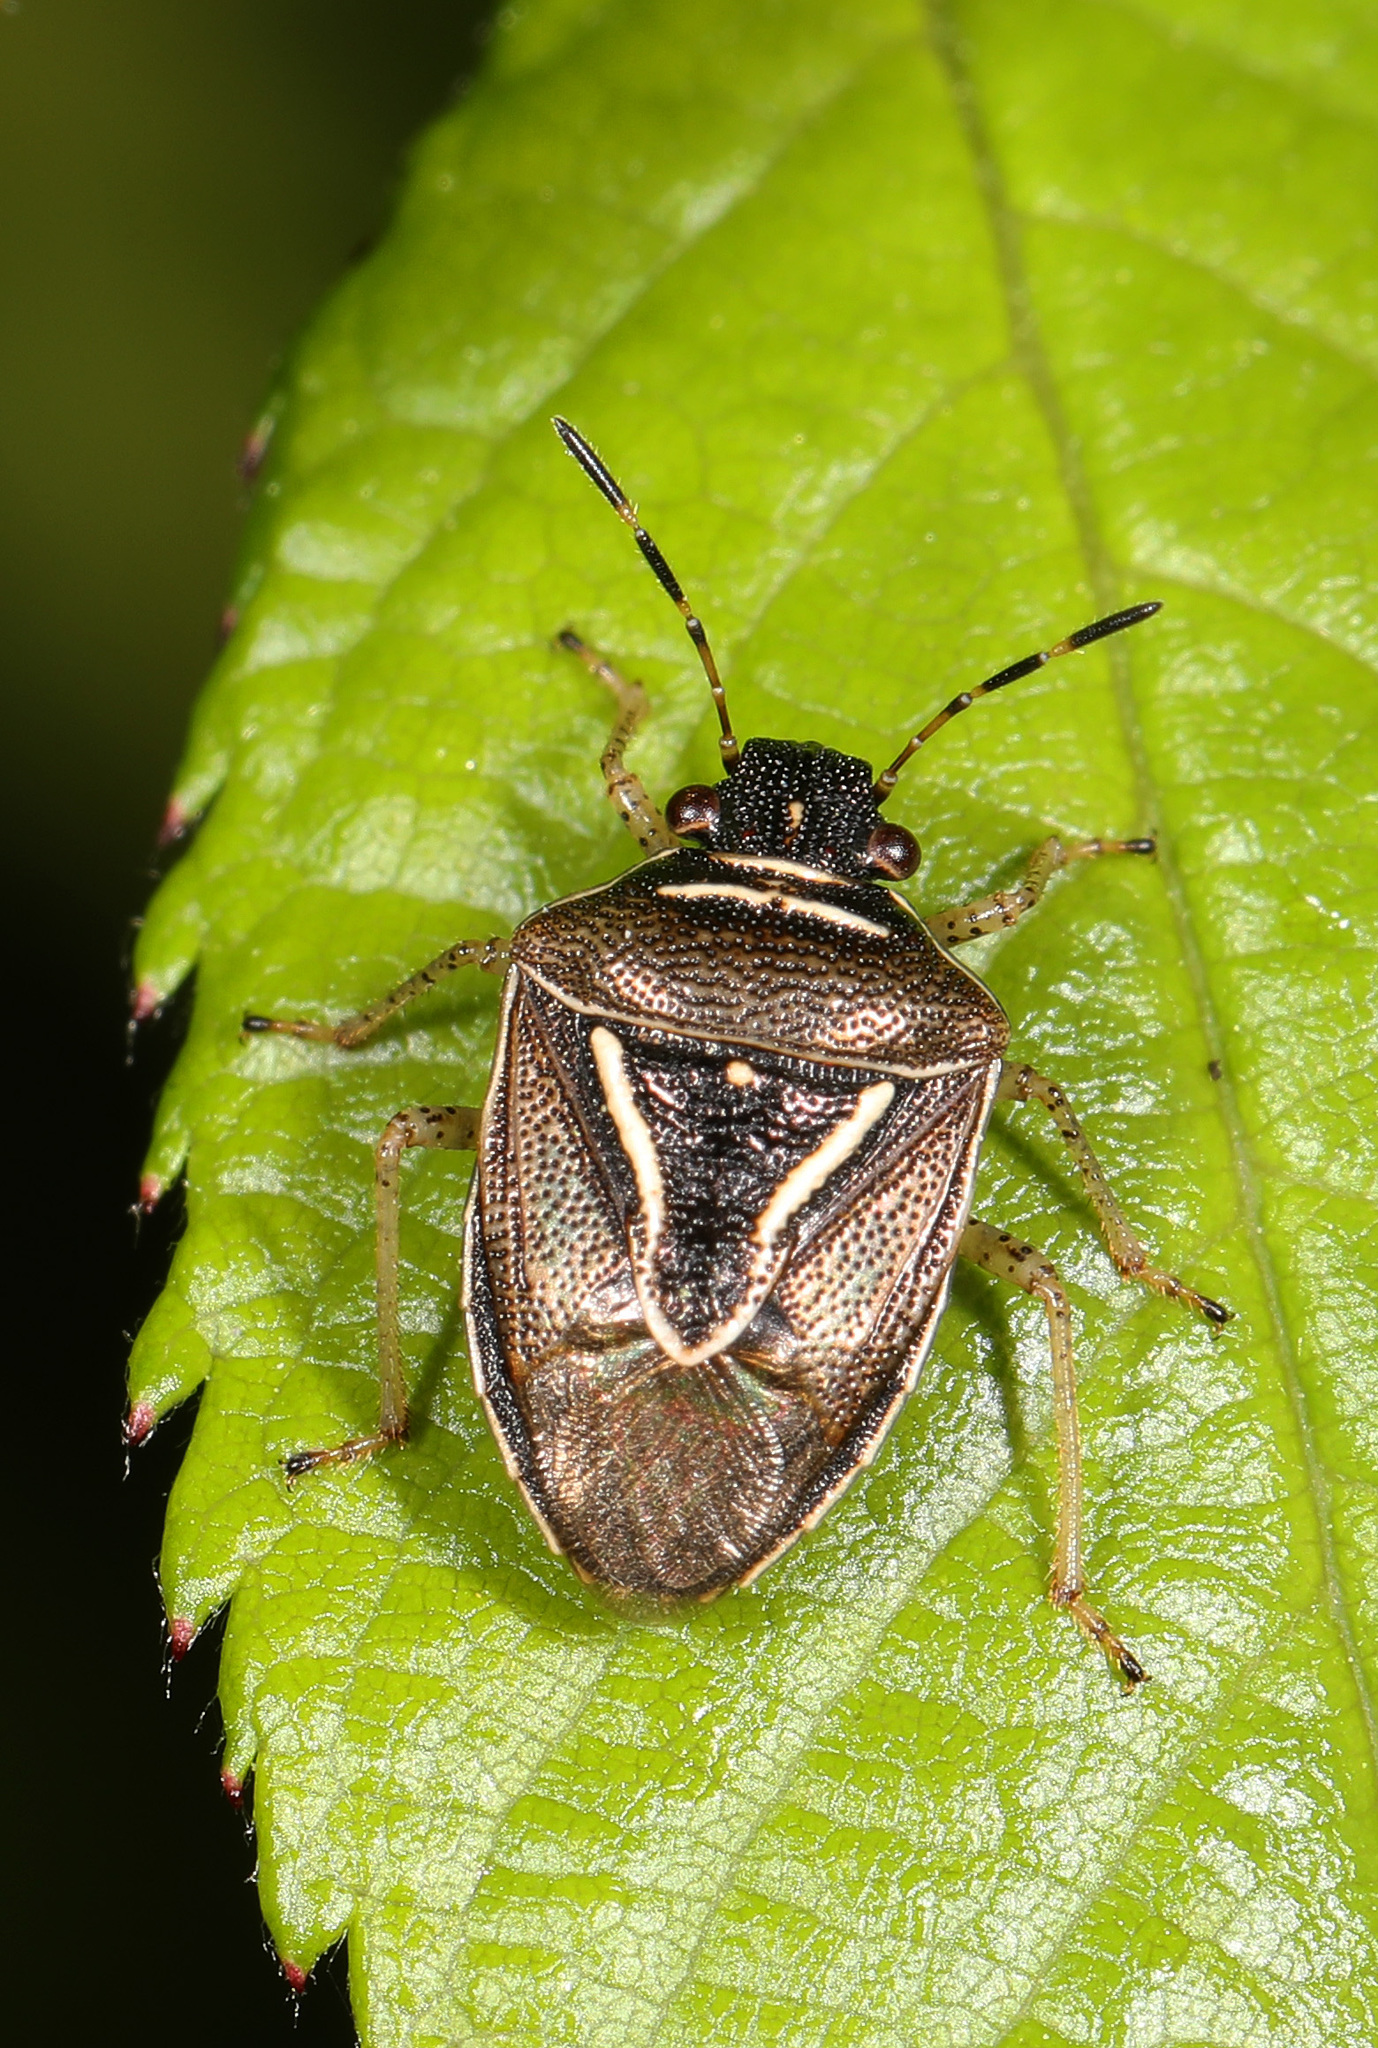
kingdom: Animalia
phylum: Arthropoda
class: Insecta
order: Hemiptera
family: Pentatomidae
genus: Mormidea
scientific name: Mormidea lugens
